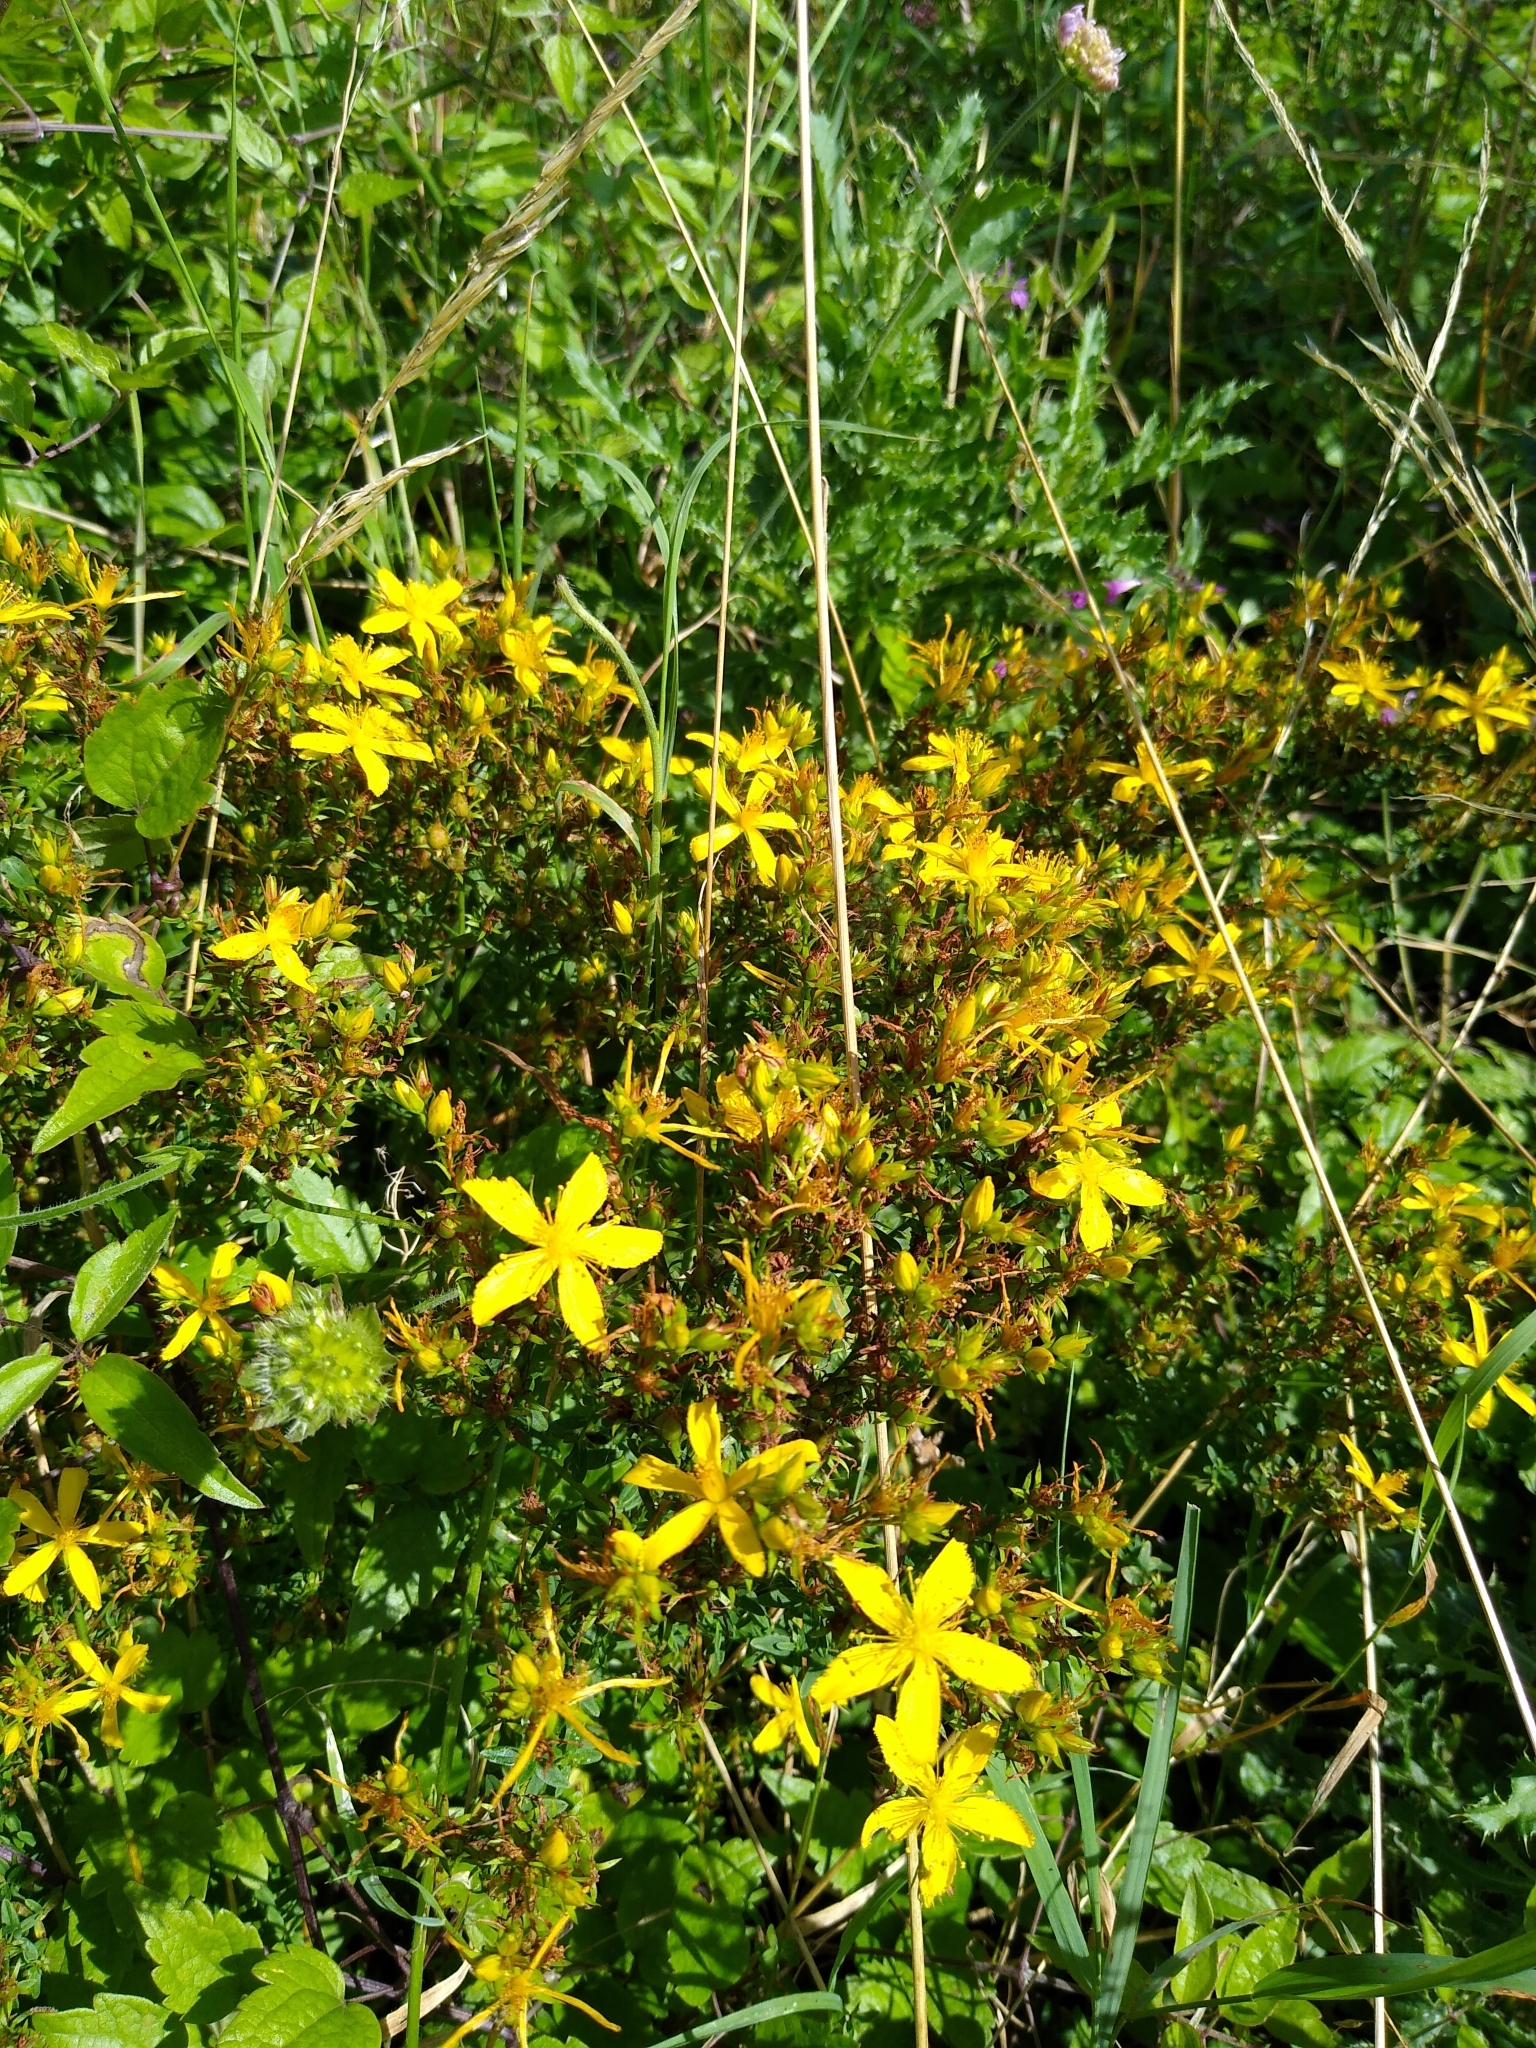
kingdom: Plantae
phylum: Tracheophyta
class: Magnoliopsida
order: Malpighiales
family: Hypericaceae
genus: Hypericum
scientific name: Hypericum perforatum
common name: Common st. johnswort
